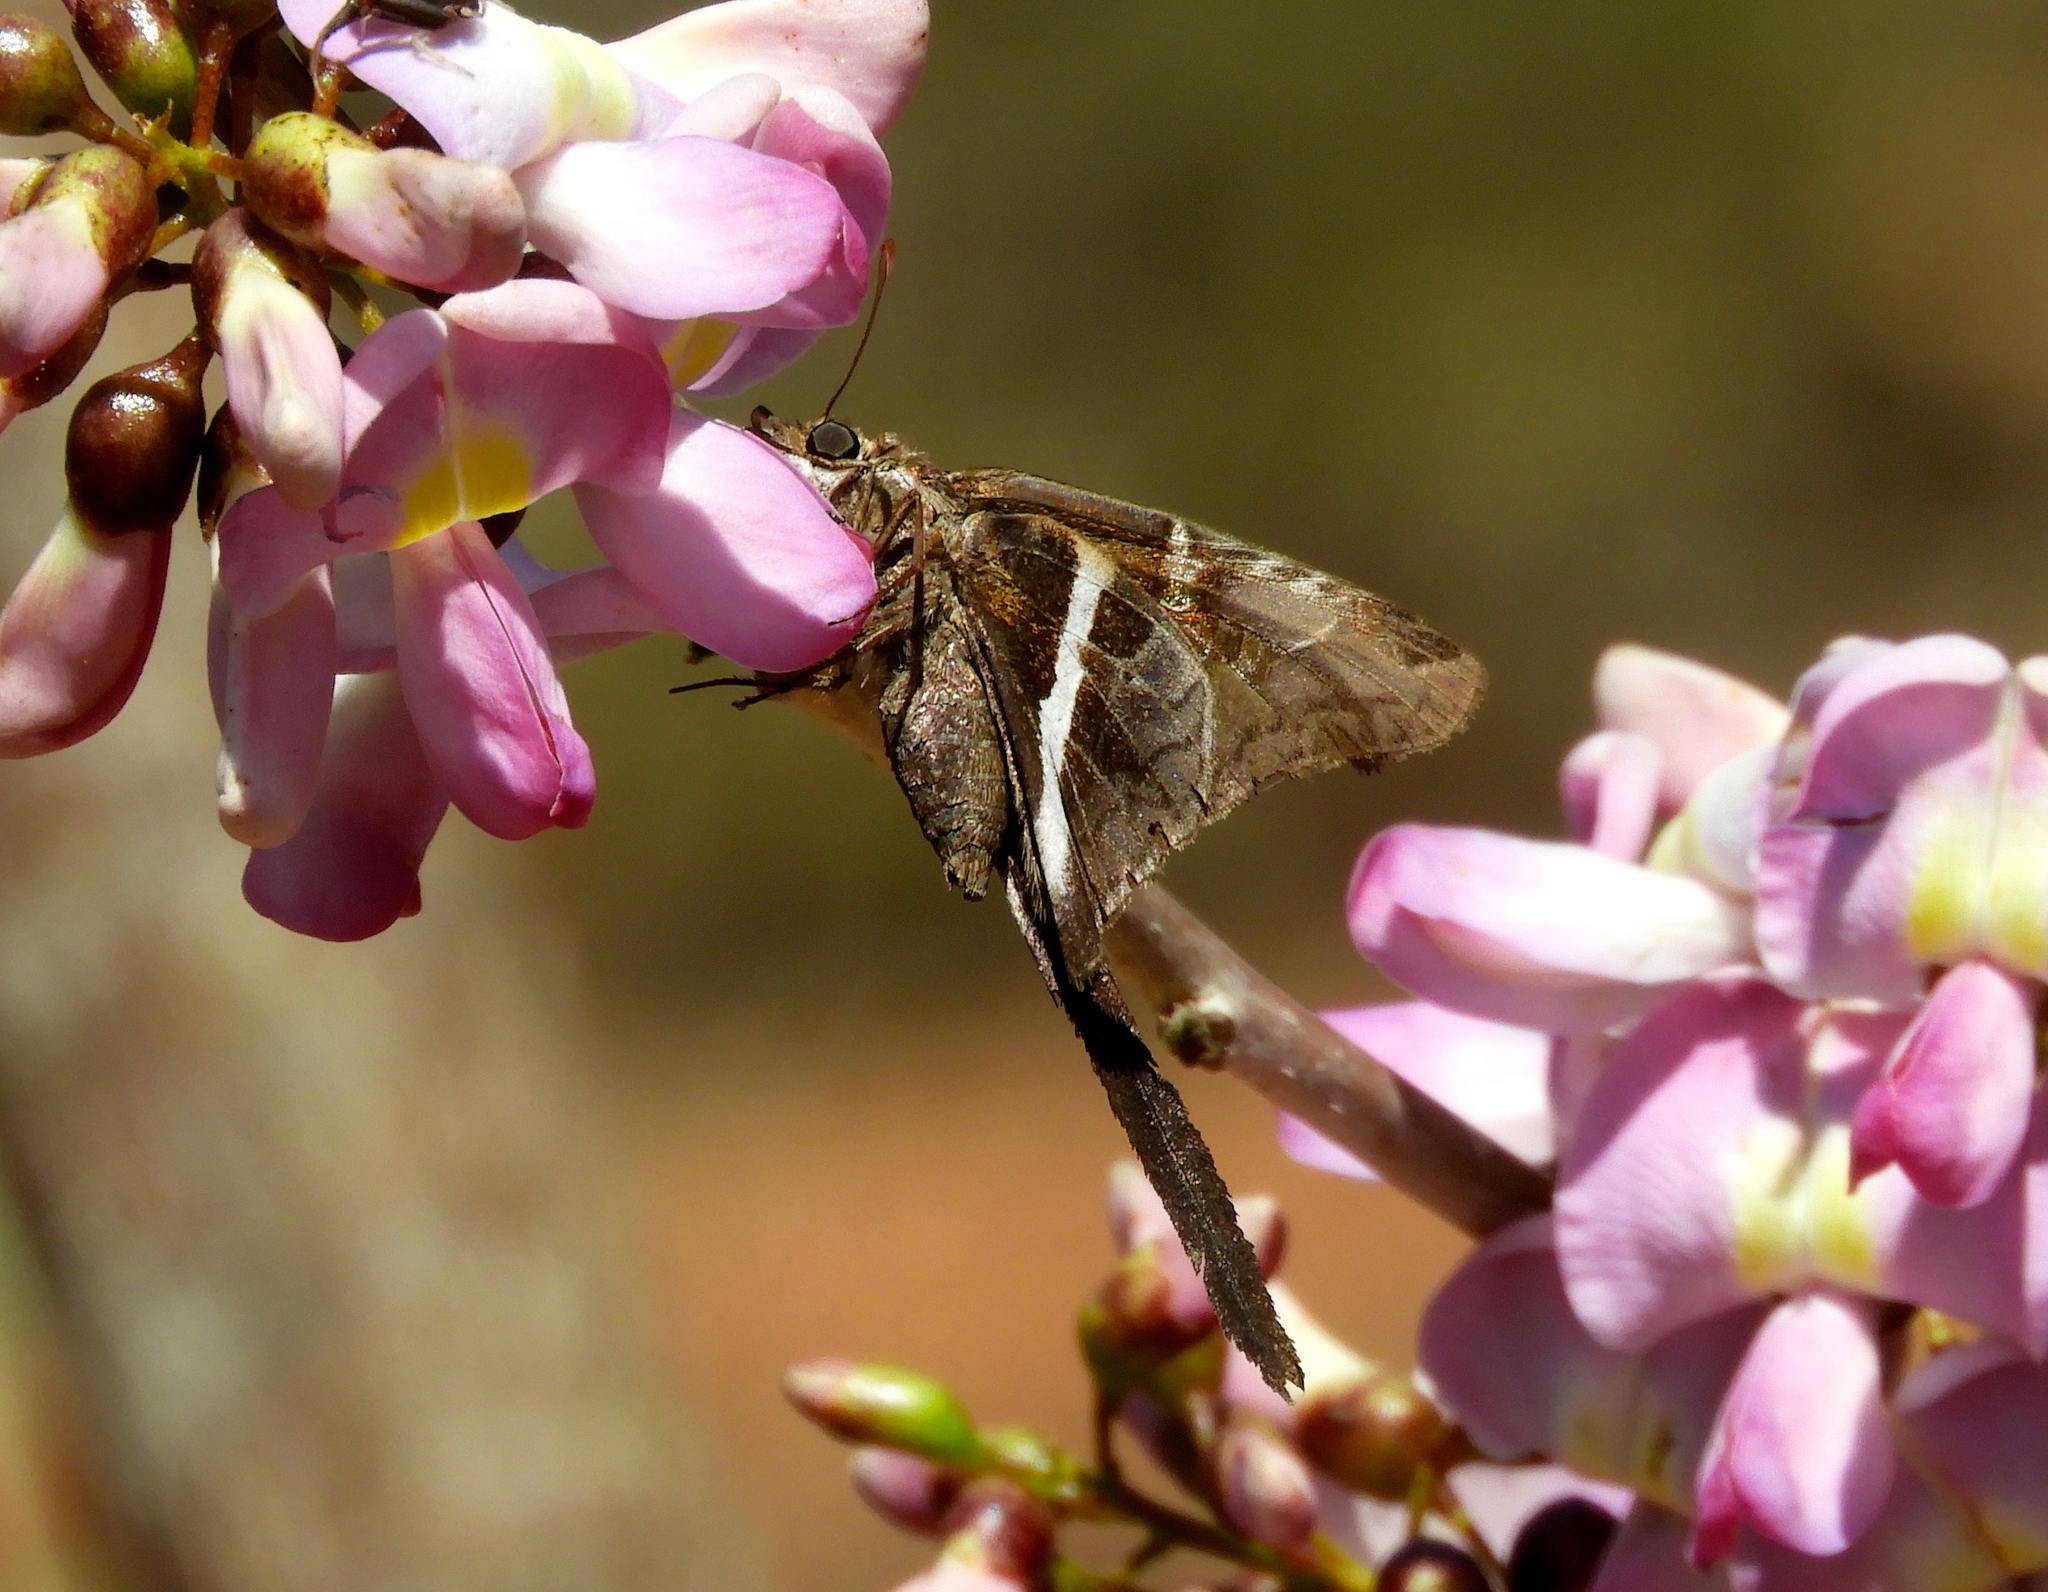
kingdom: Animalia
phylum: Arthropoda
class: Insecta
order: Lepidoptera
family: Hesperiidae
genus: Chioides
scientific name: Chioides catillus
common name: Silverbanded skipper
